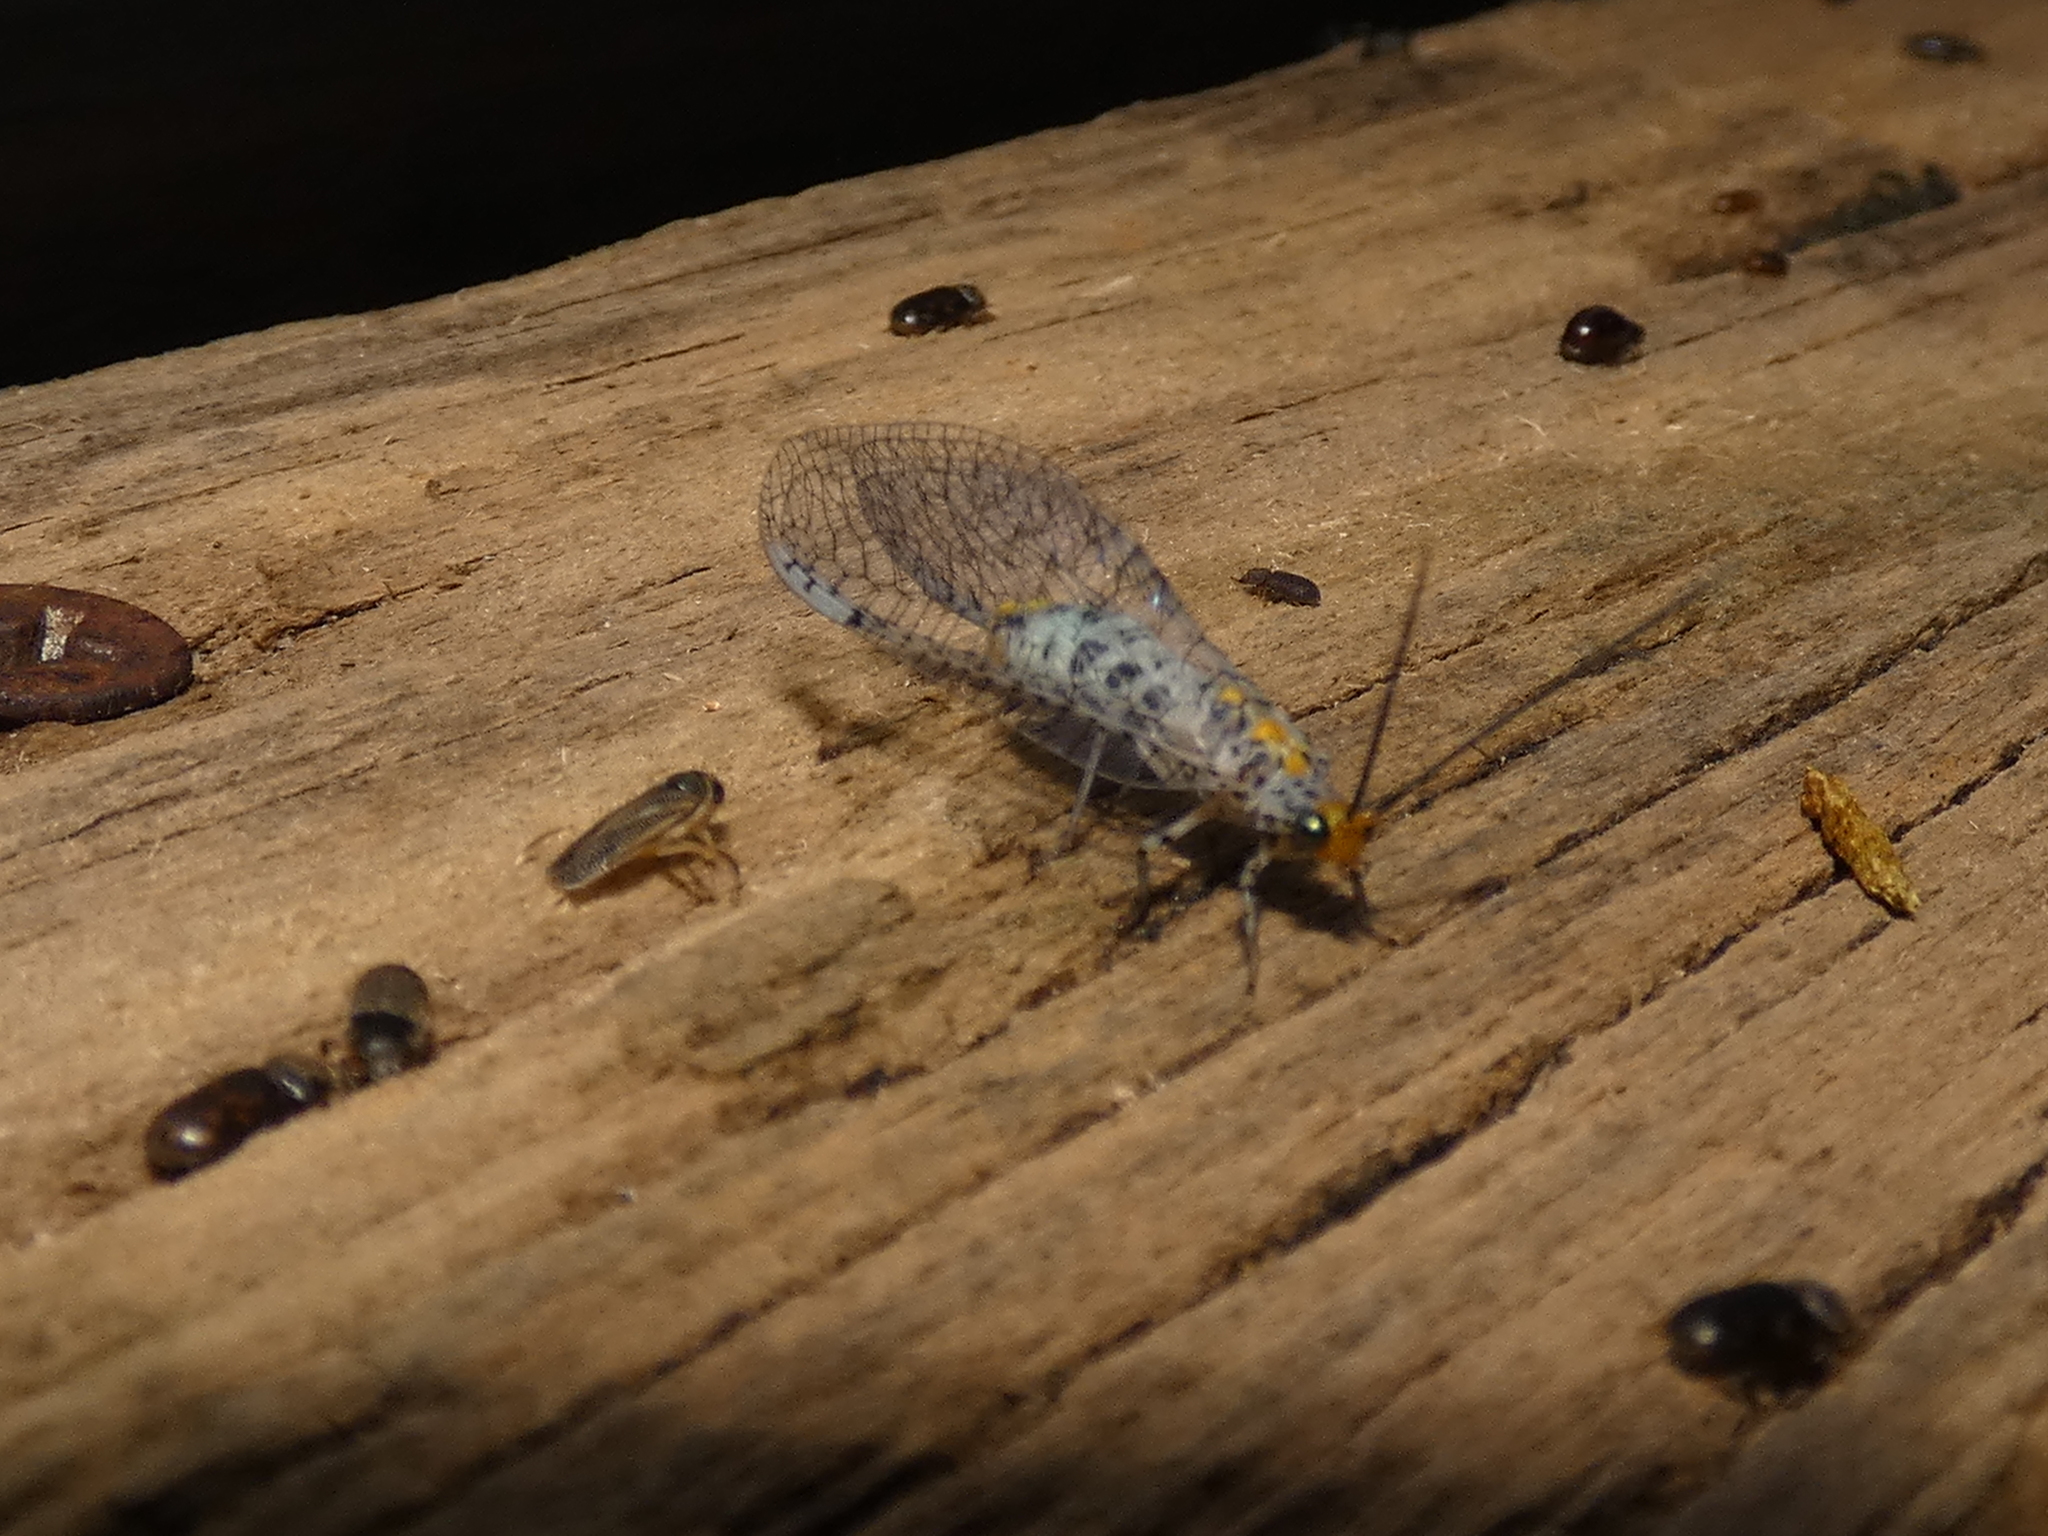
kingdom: Animalia
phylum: Arthropoda
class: Insecta
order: Neuroptera
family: Chrysopidae
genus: Abachrysa
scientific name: Abachrysa eureka
